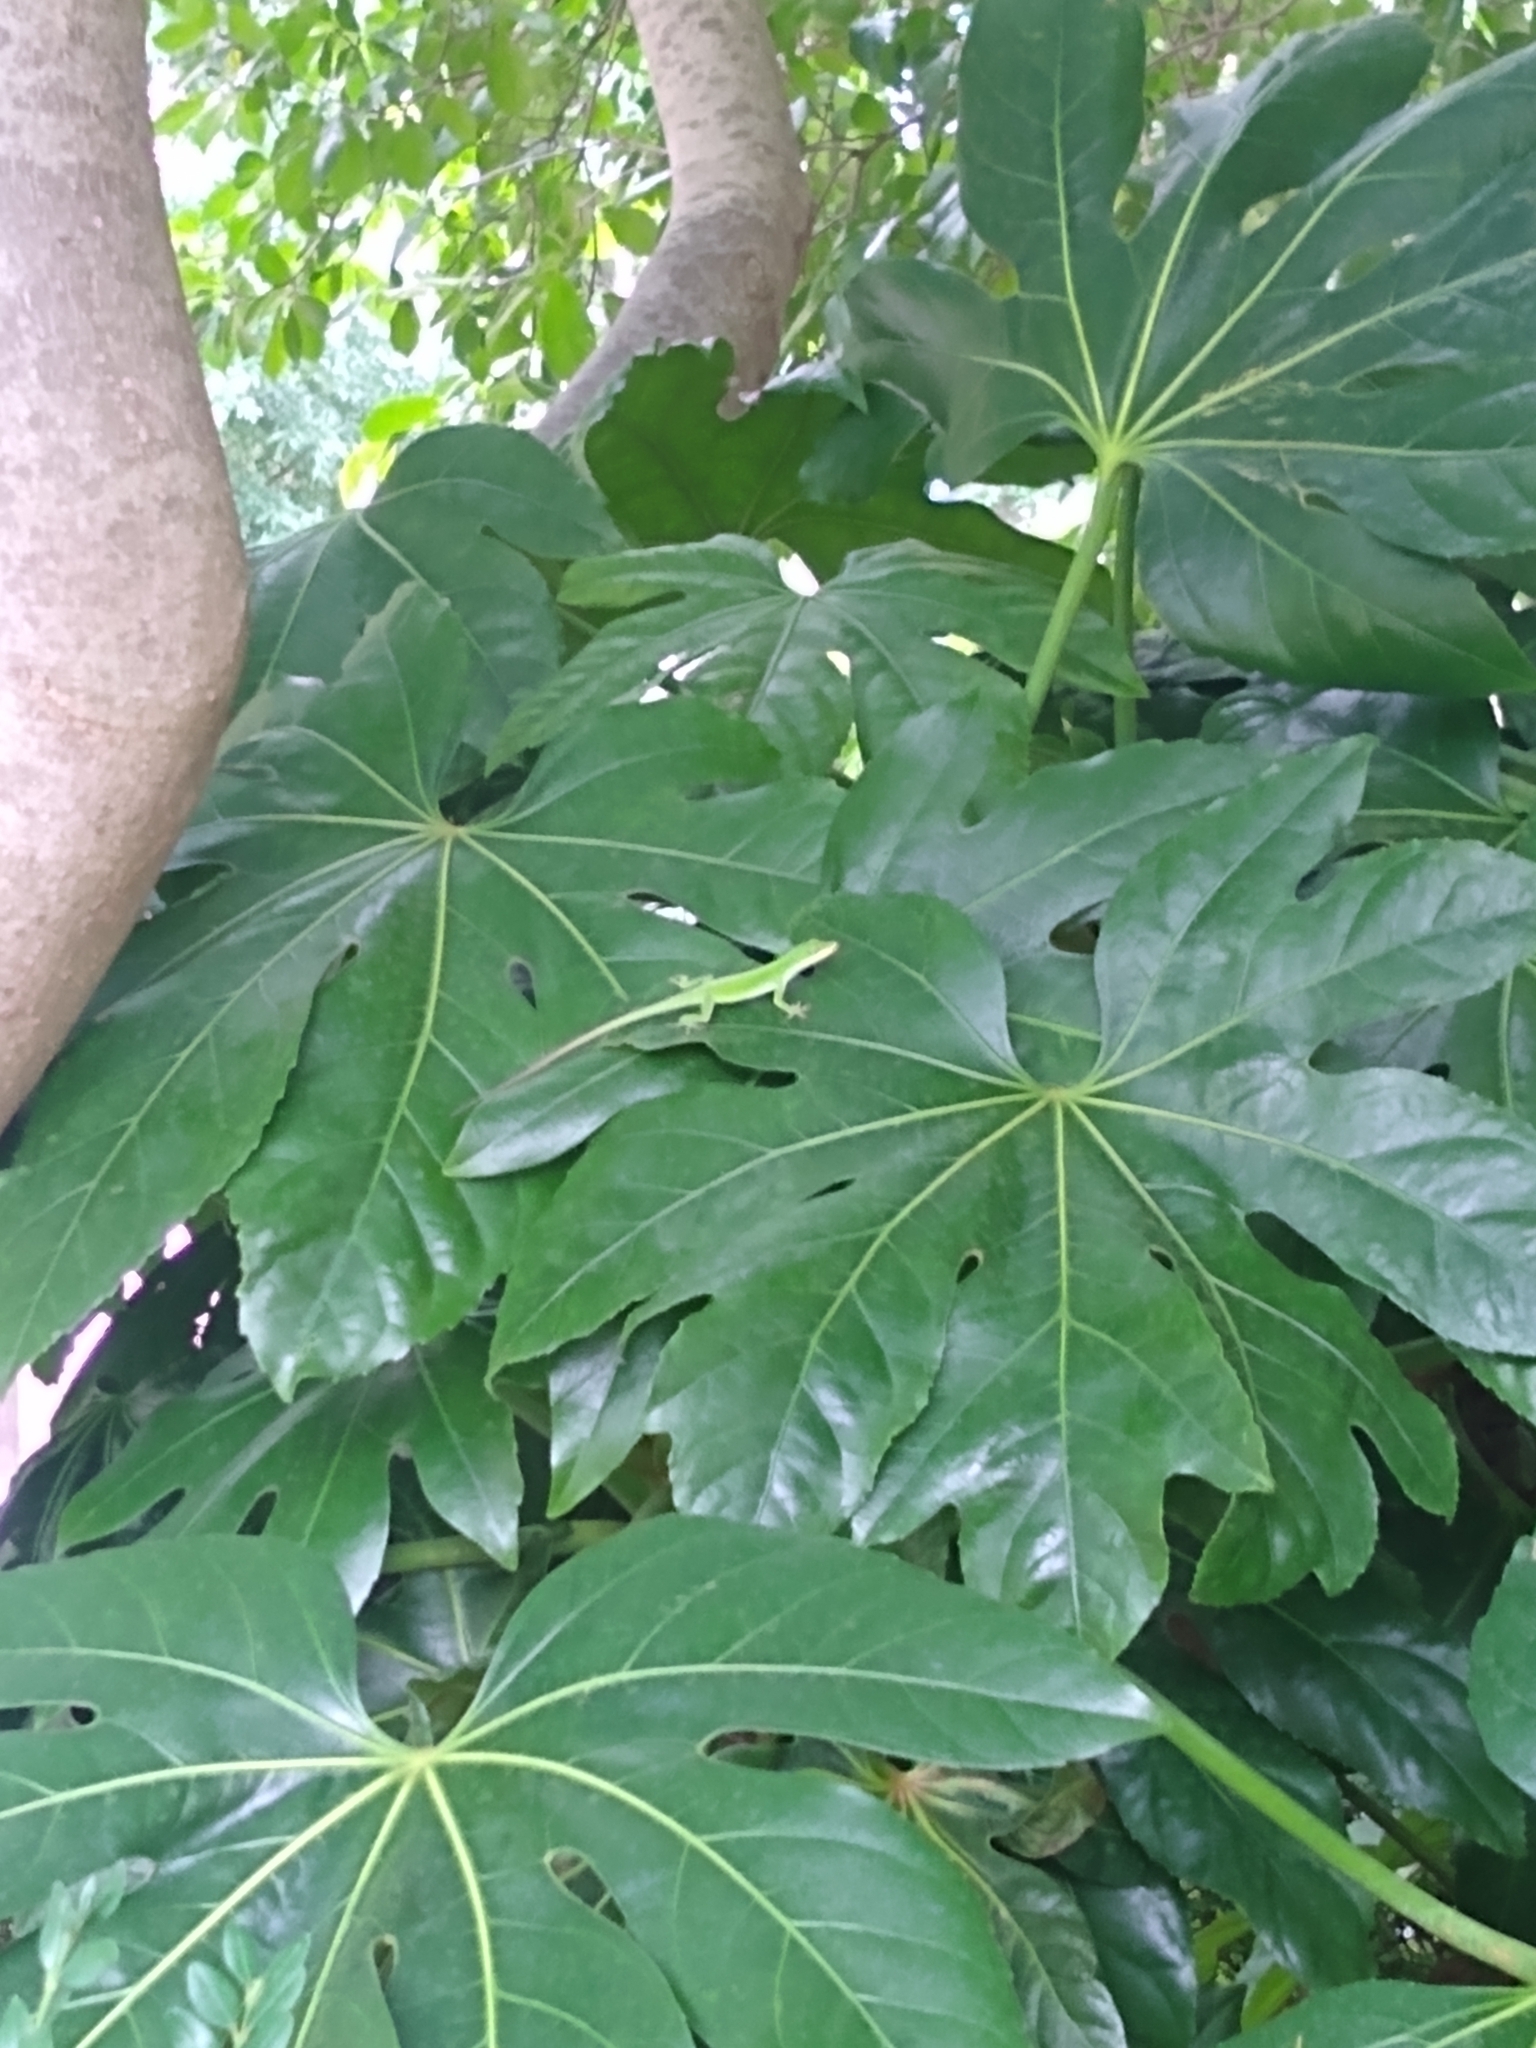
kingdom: Animalia
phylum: Chordata
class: Squamata
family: Dactyloidae
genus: Anolis
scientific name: Anolis carolinensis
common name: Green anole
